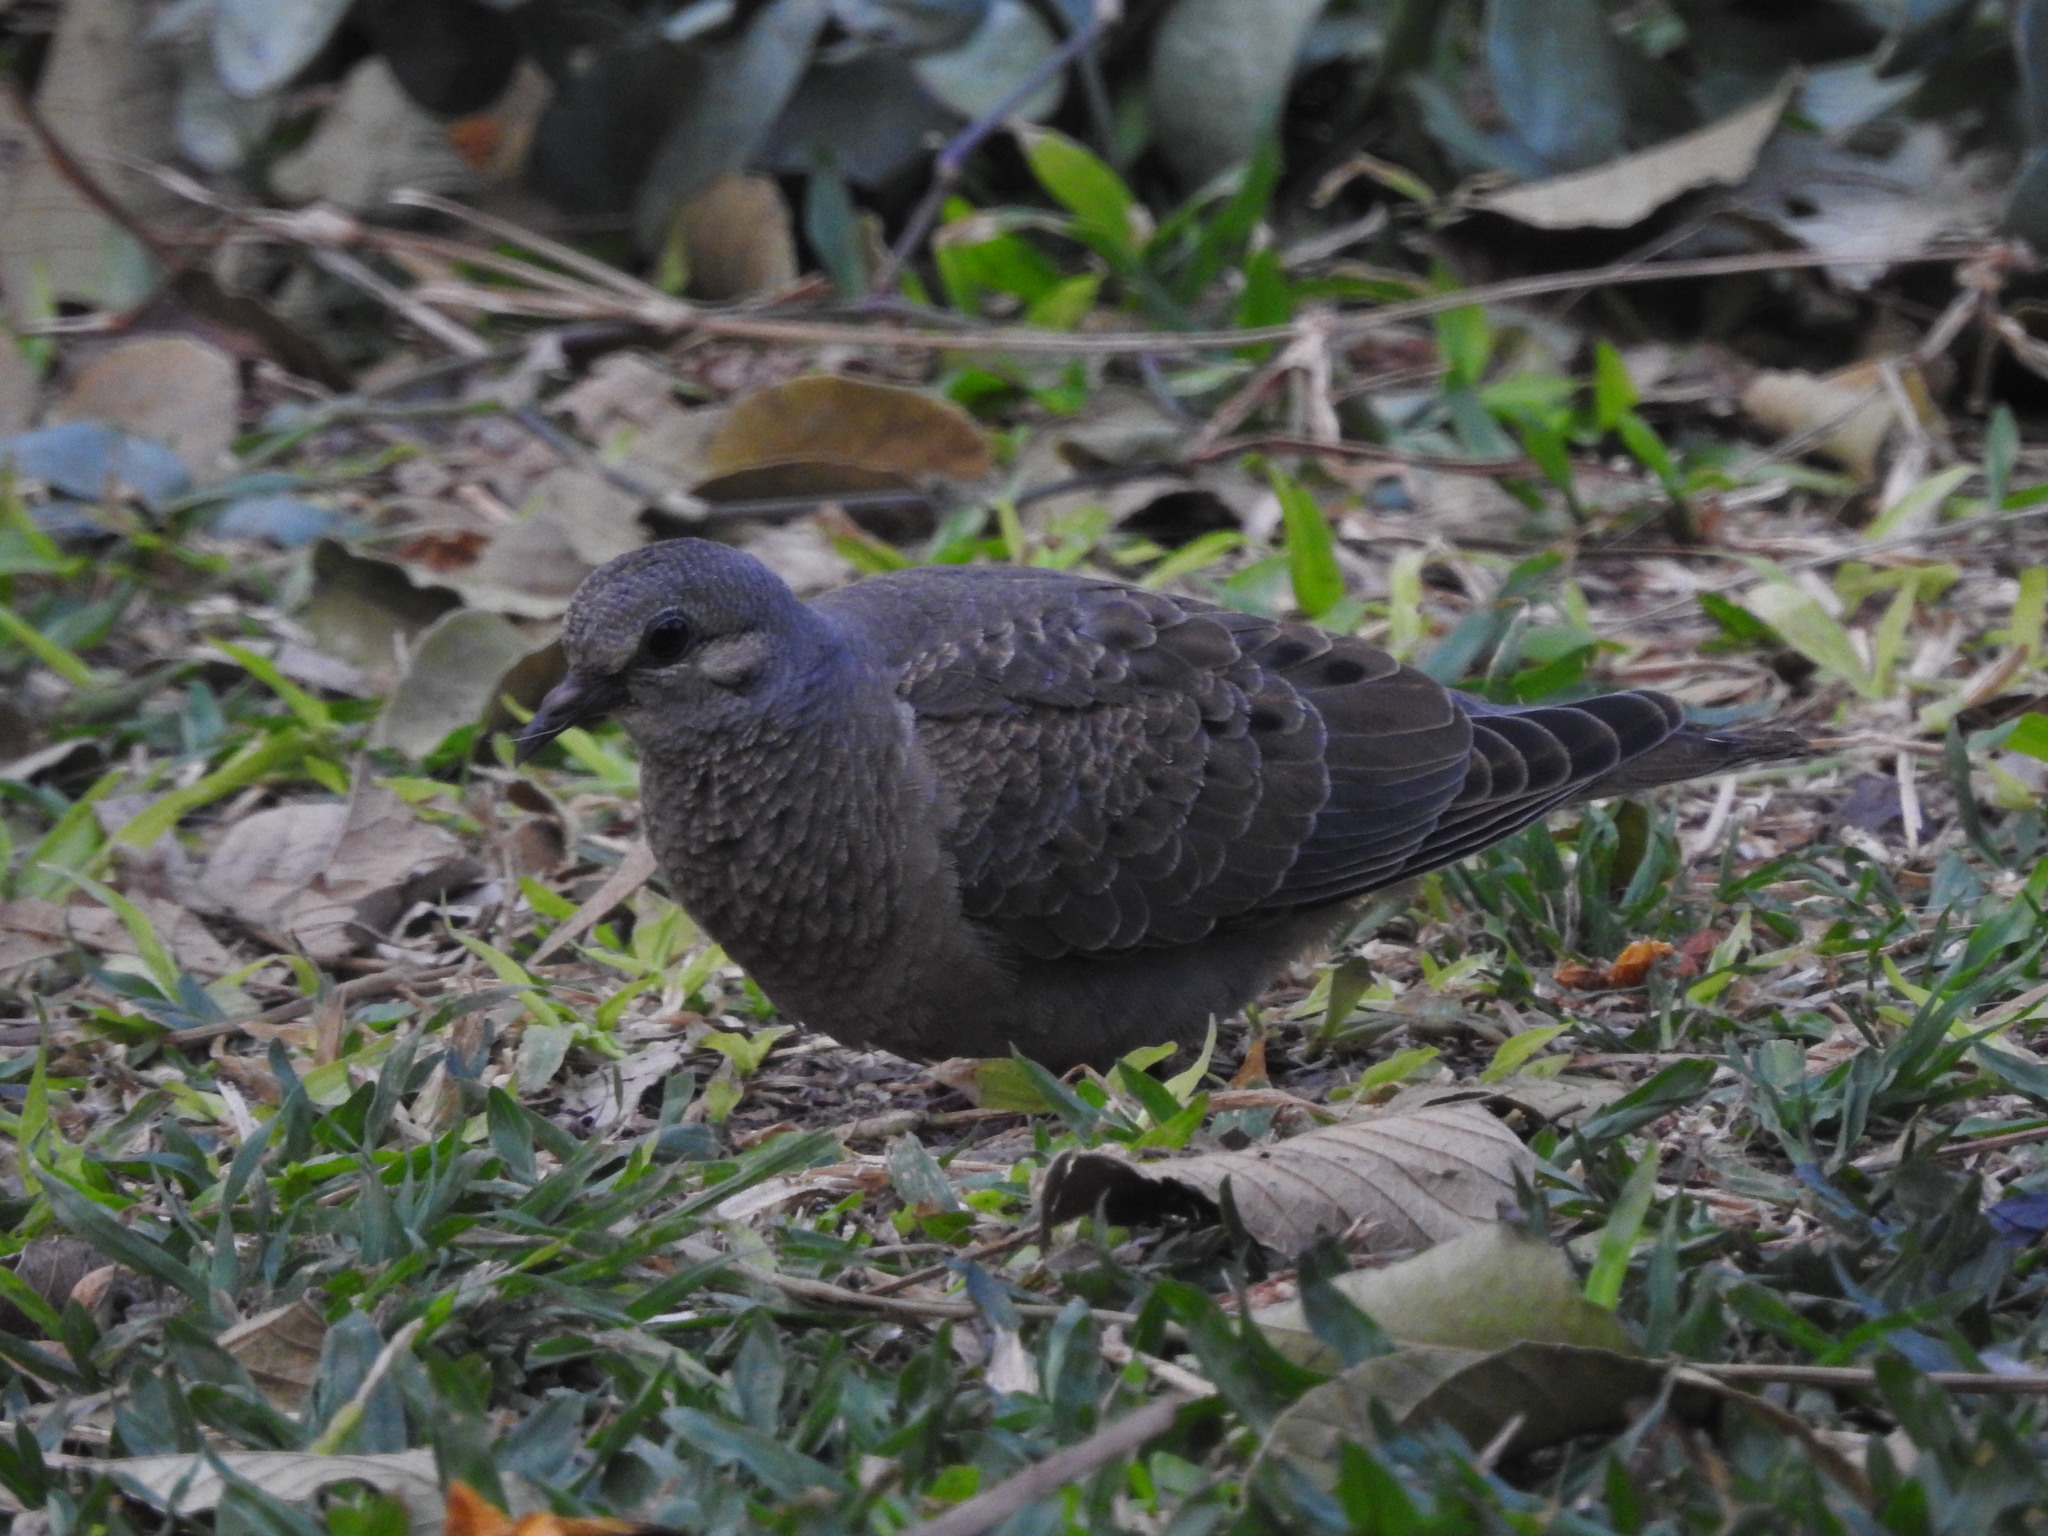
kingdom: Animalia
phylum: Chordata
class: Aves
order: Columbiformes
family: Columbidae
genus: Zenaida
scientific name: Zenaida auriculata
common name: Eared dove
